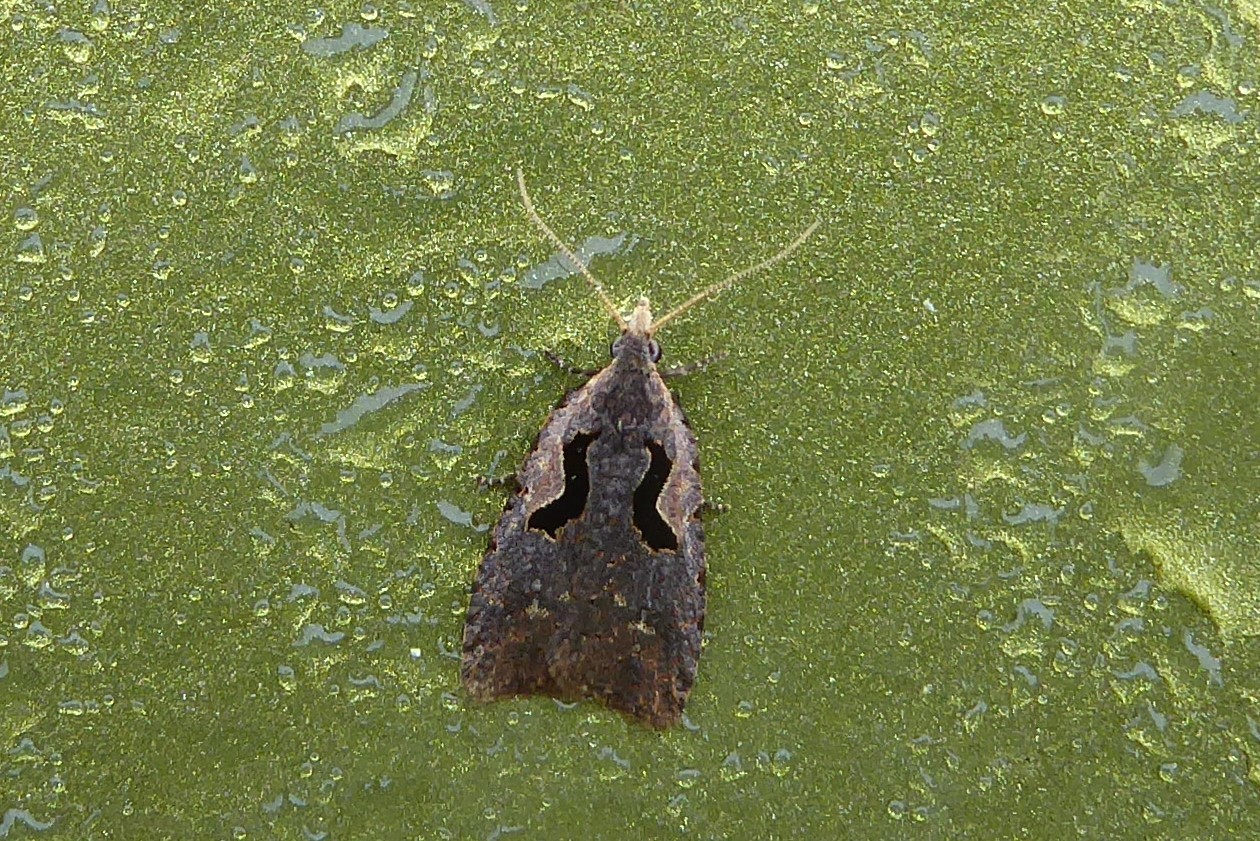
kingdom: Animalia
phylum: Arthropoda
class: Insecta
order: Lepidoptera
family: Tortricidae
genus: Cnephasia
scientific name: Cnephasia jactatana
